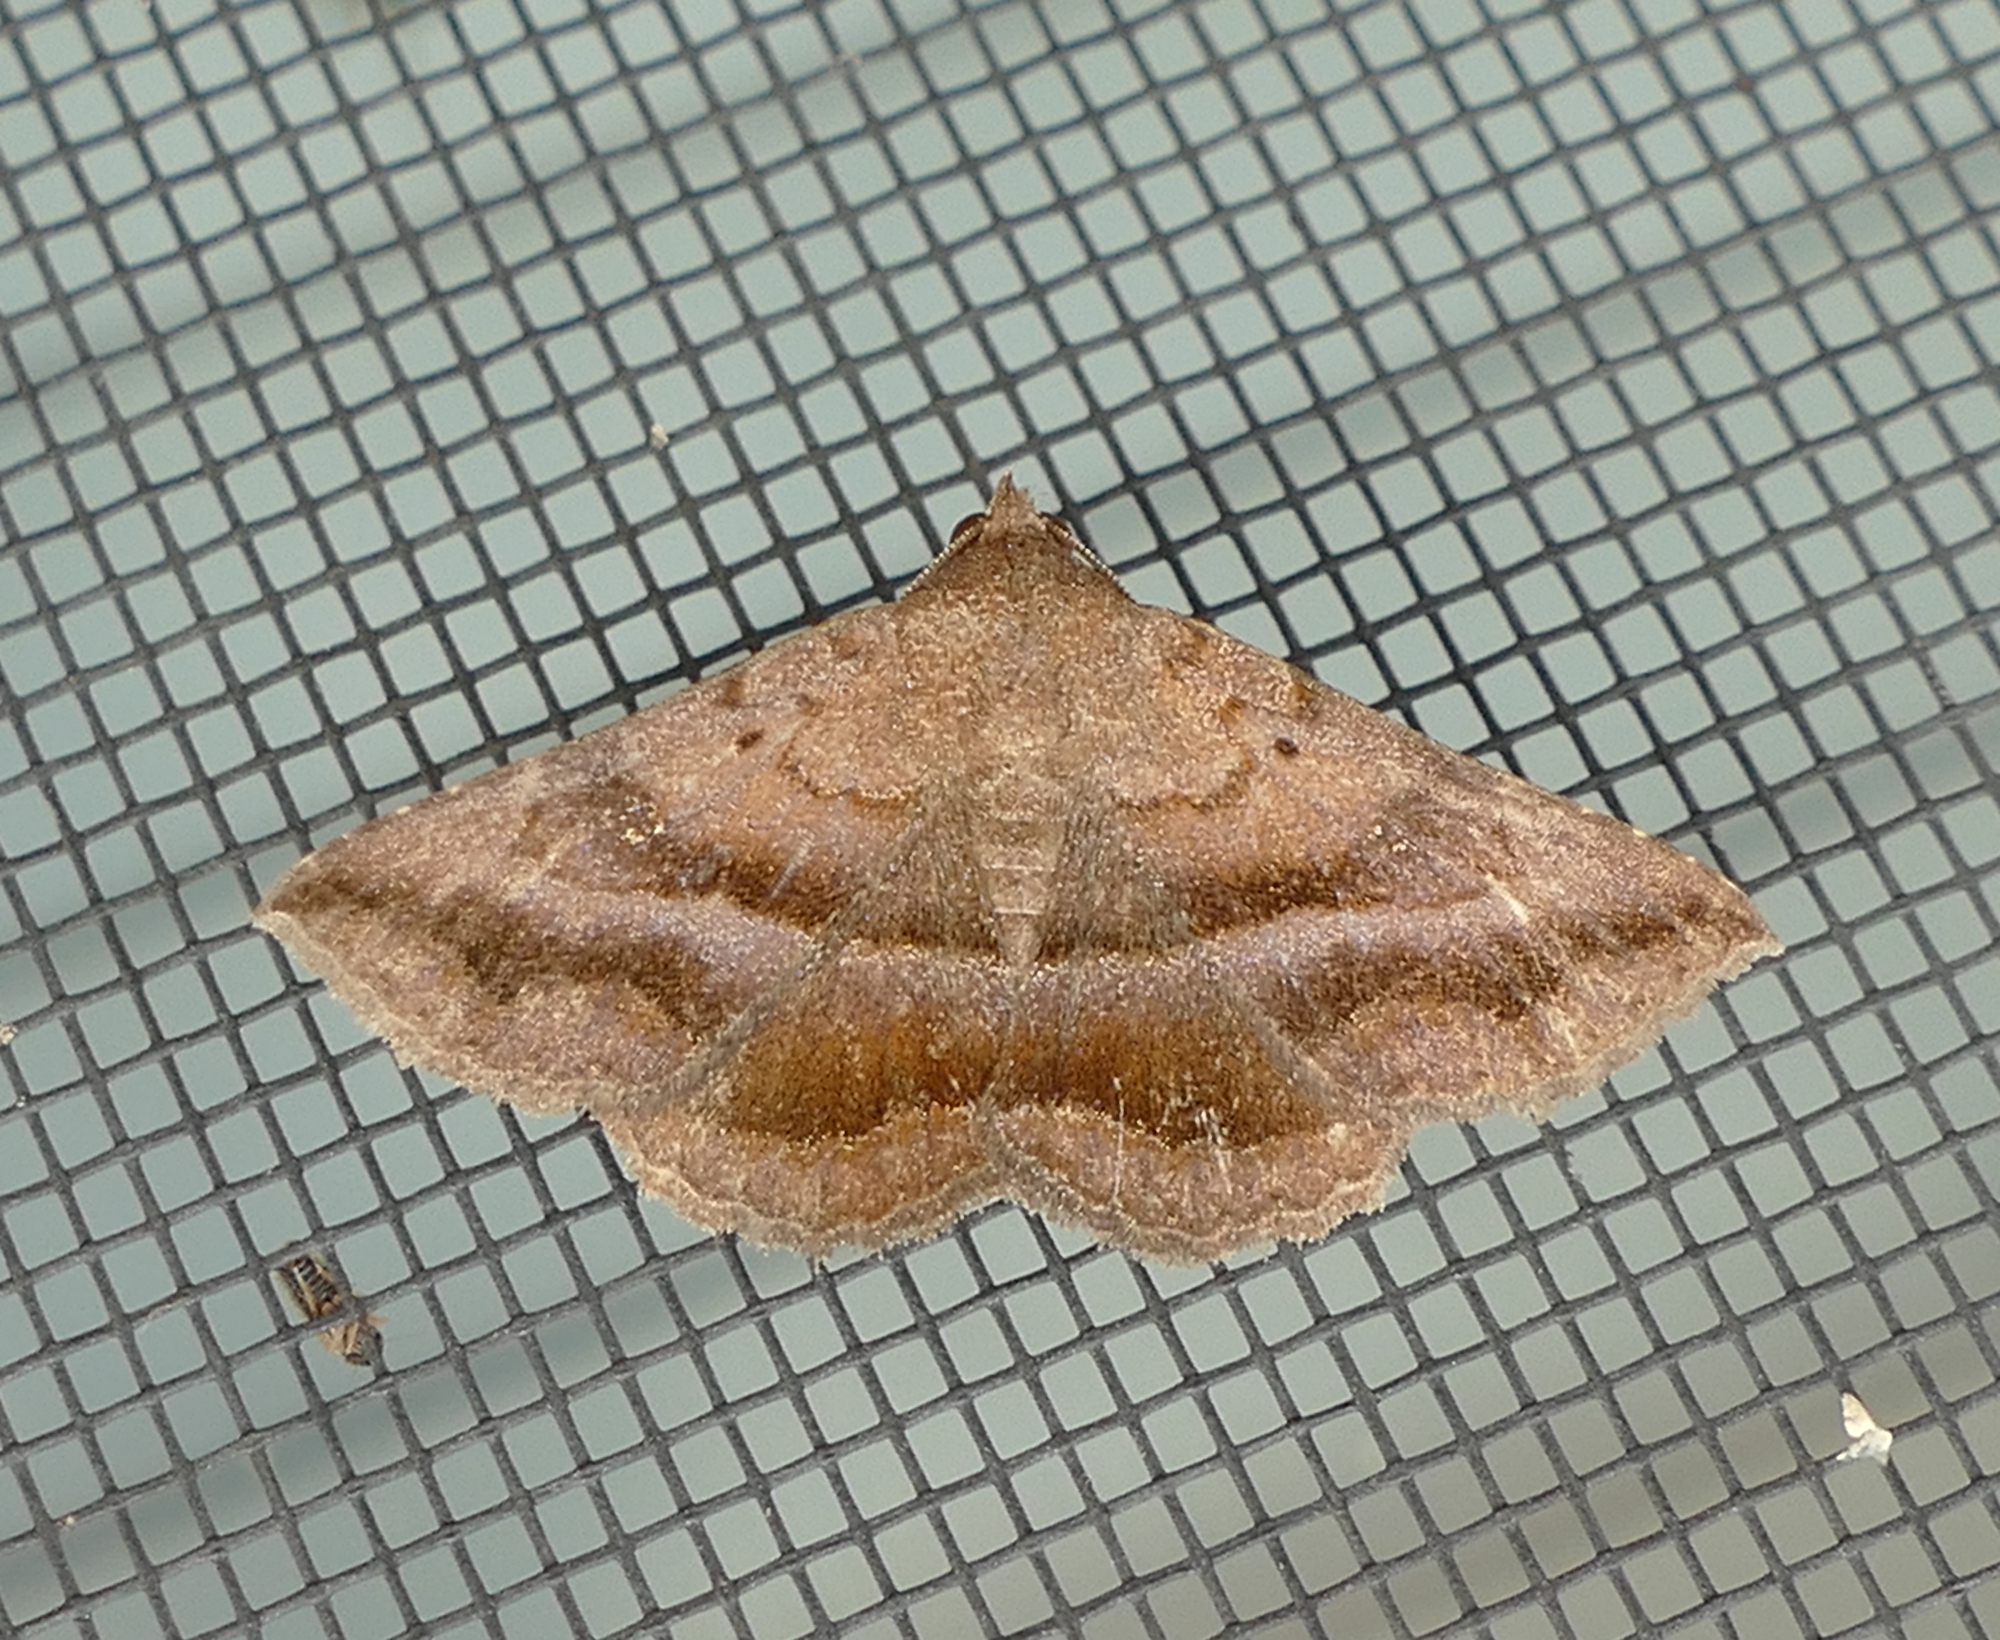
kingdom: Animalia
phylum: Arthropoda
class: Insecta
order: Lepidoptera
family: Erebidae
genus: Lesmone
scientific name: Lesmone detrahens
